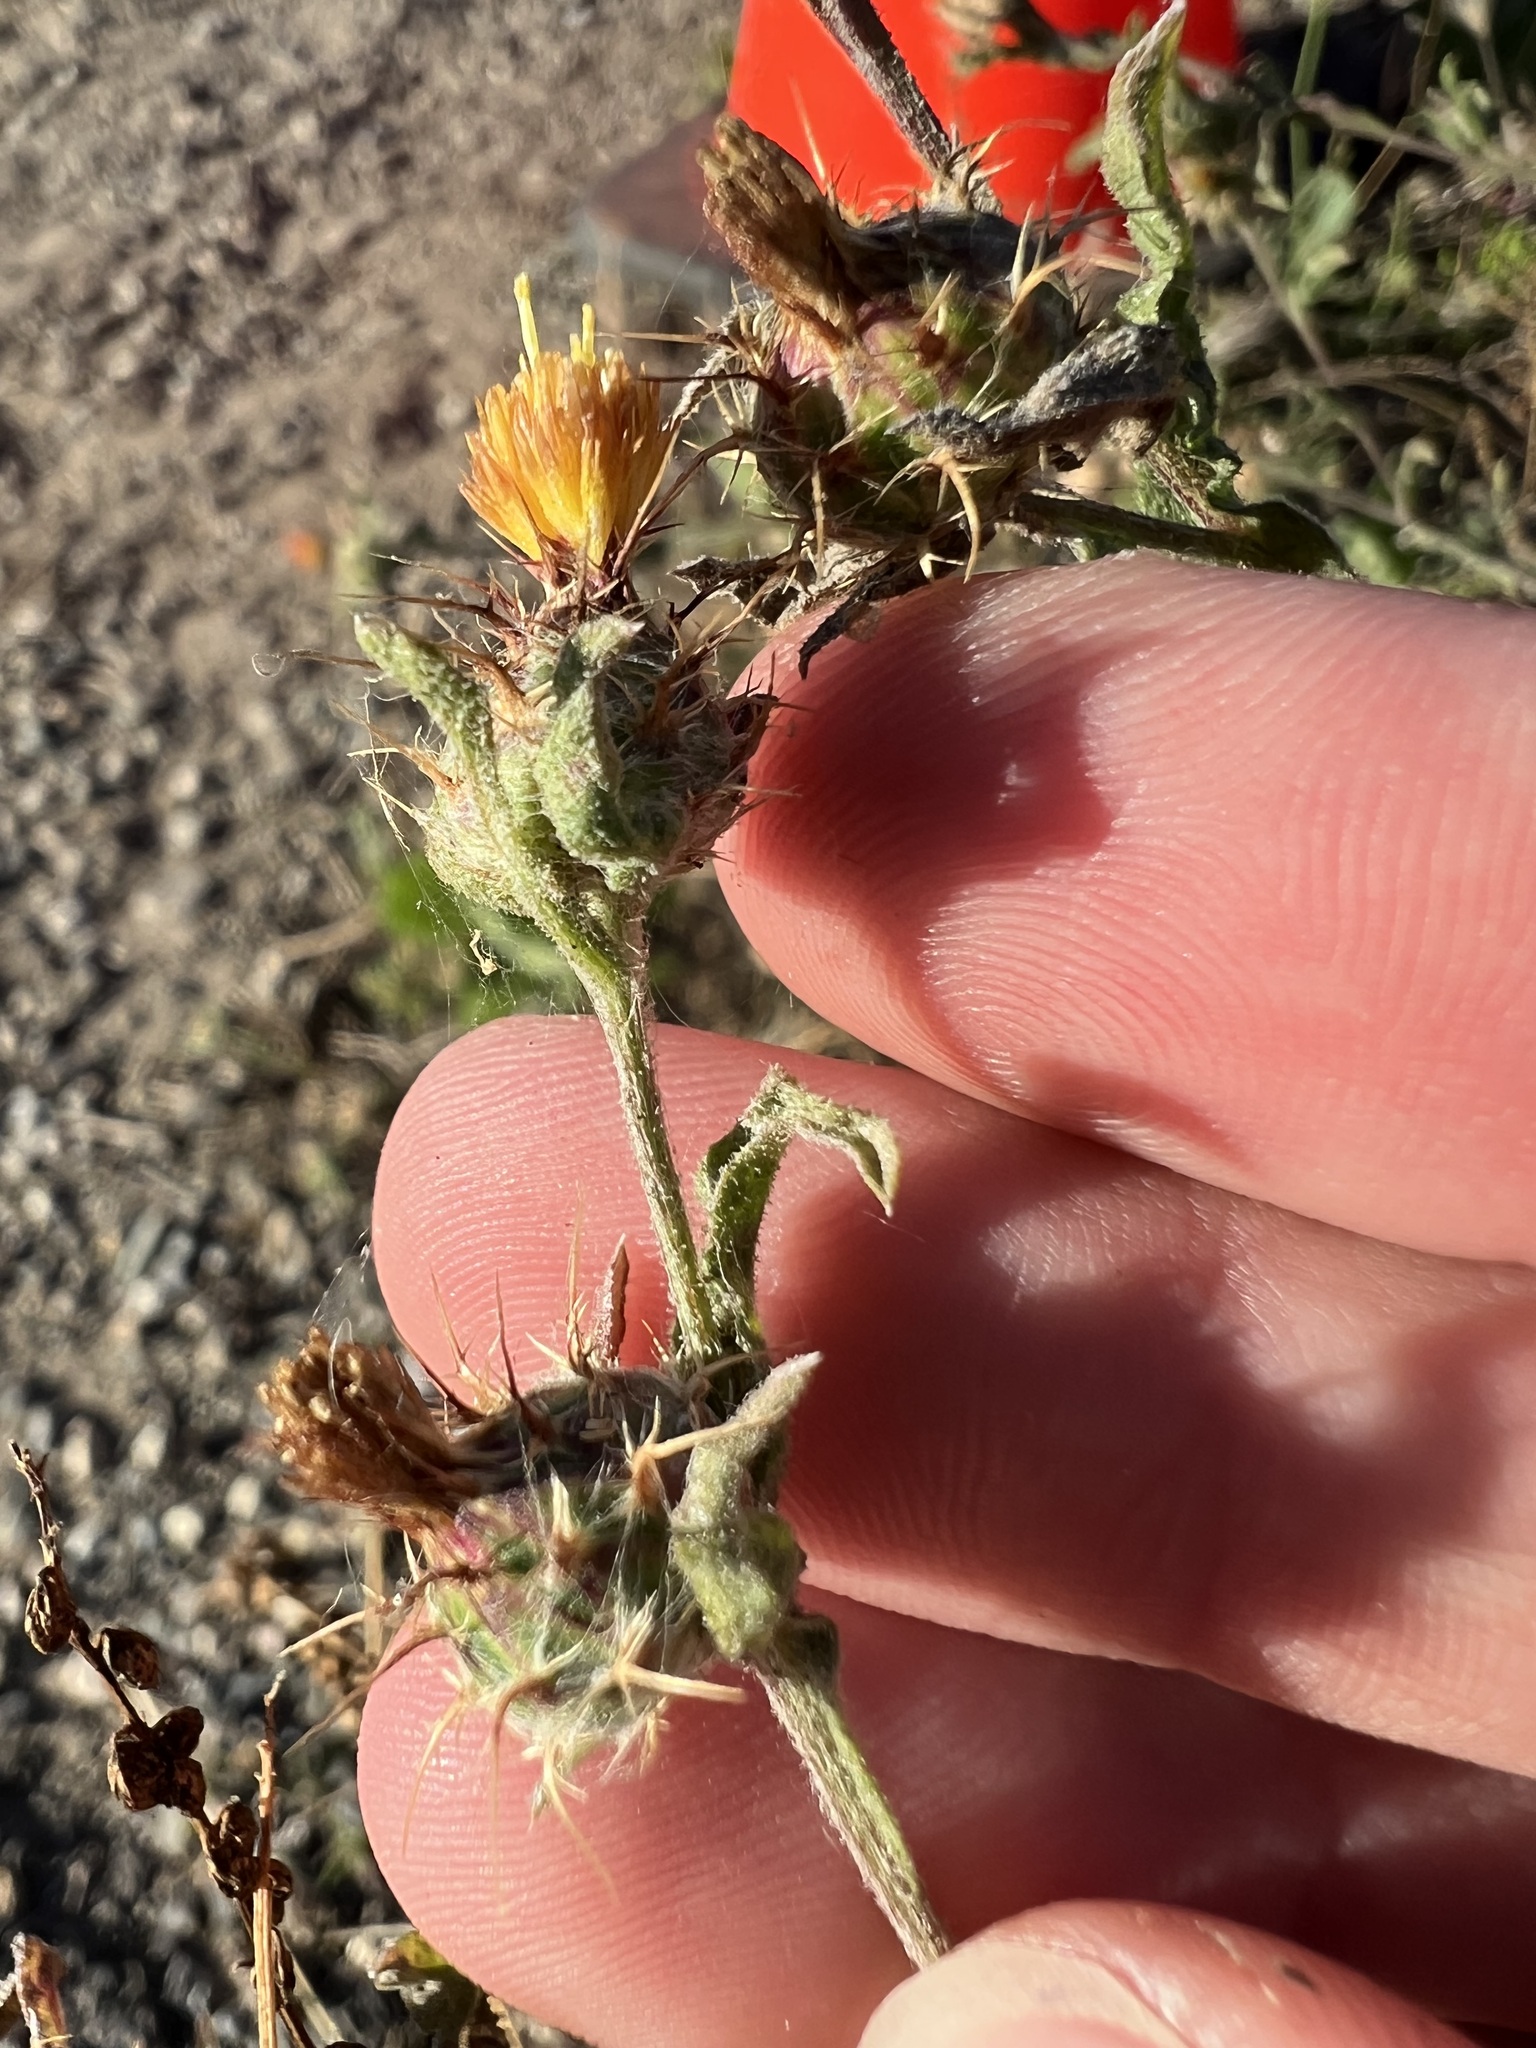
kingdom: Plantae
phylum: Tracheophyta
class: Magnoliopsida
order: Asterales
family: Asteraceae
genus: Centaurea
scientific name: Centaurea melitensis
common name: Maltese star-thistle
